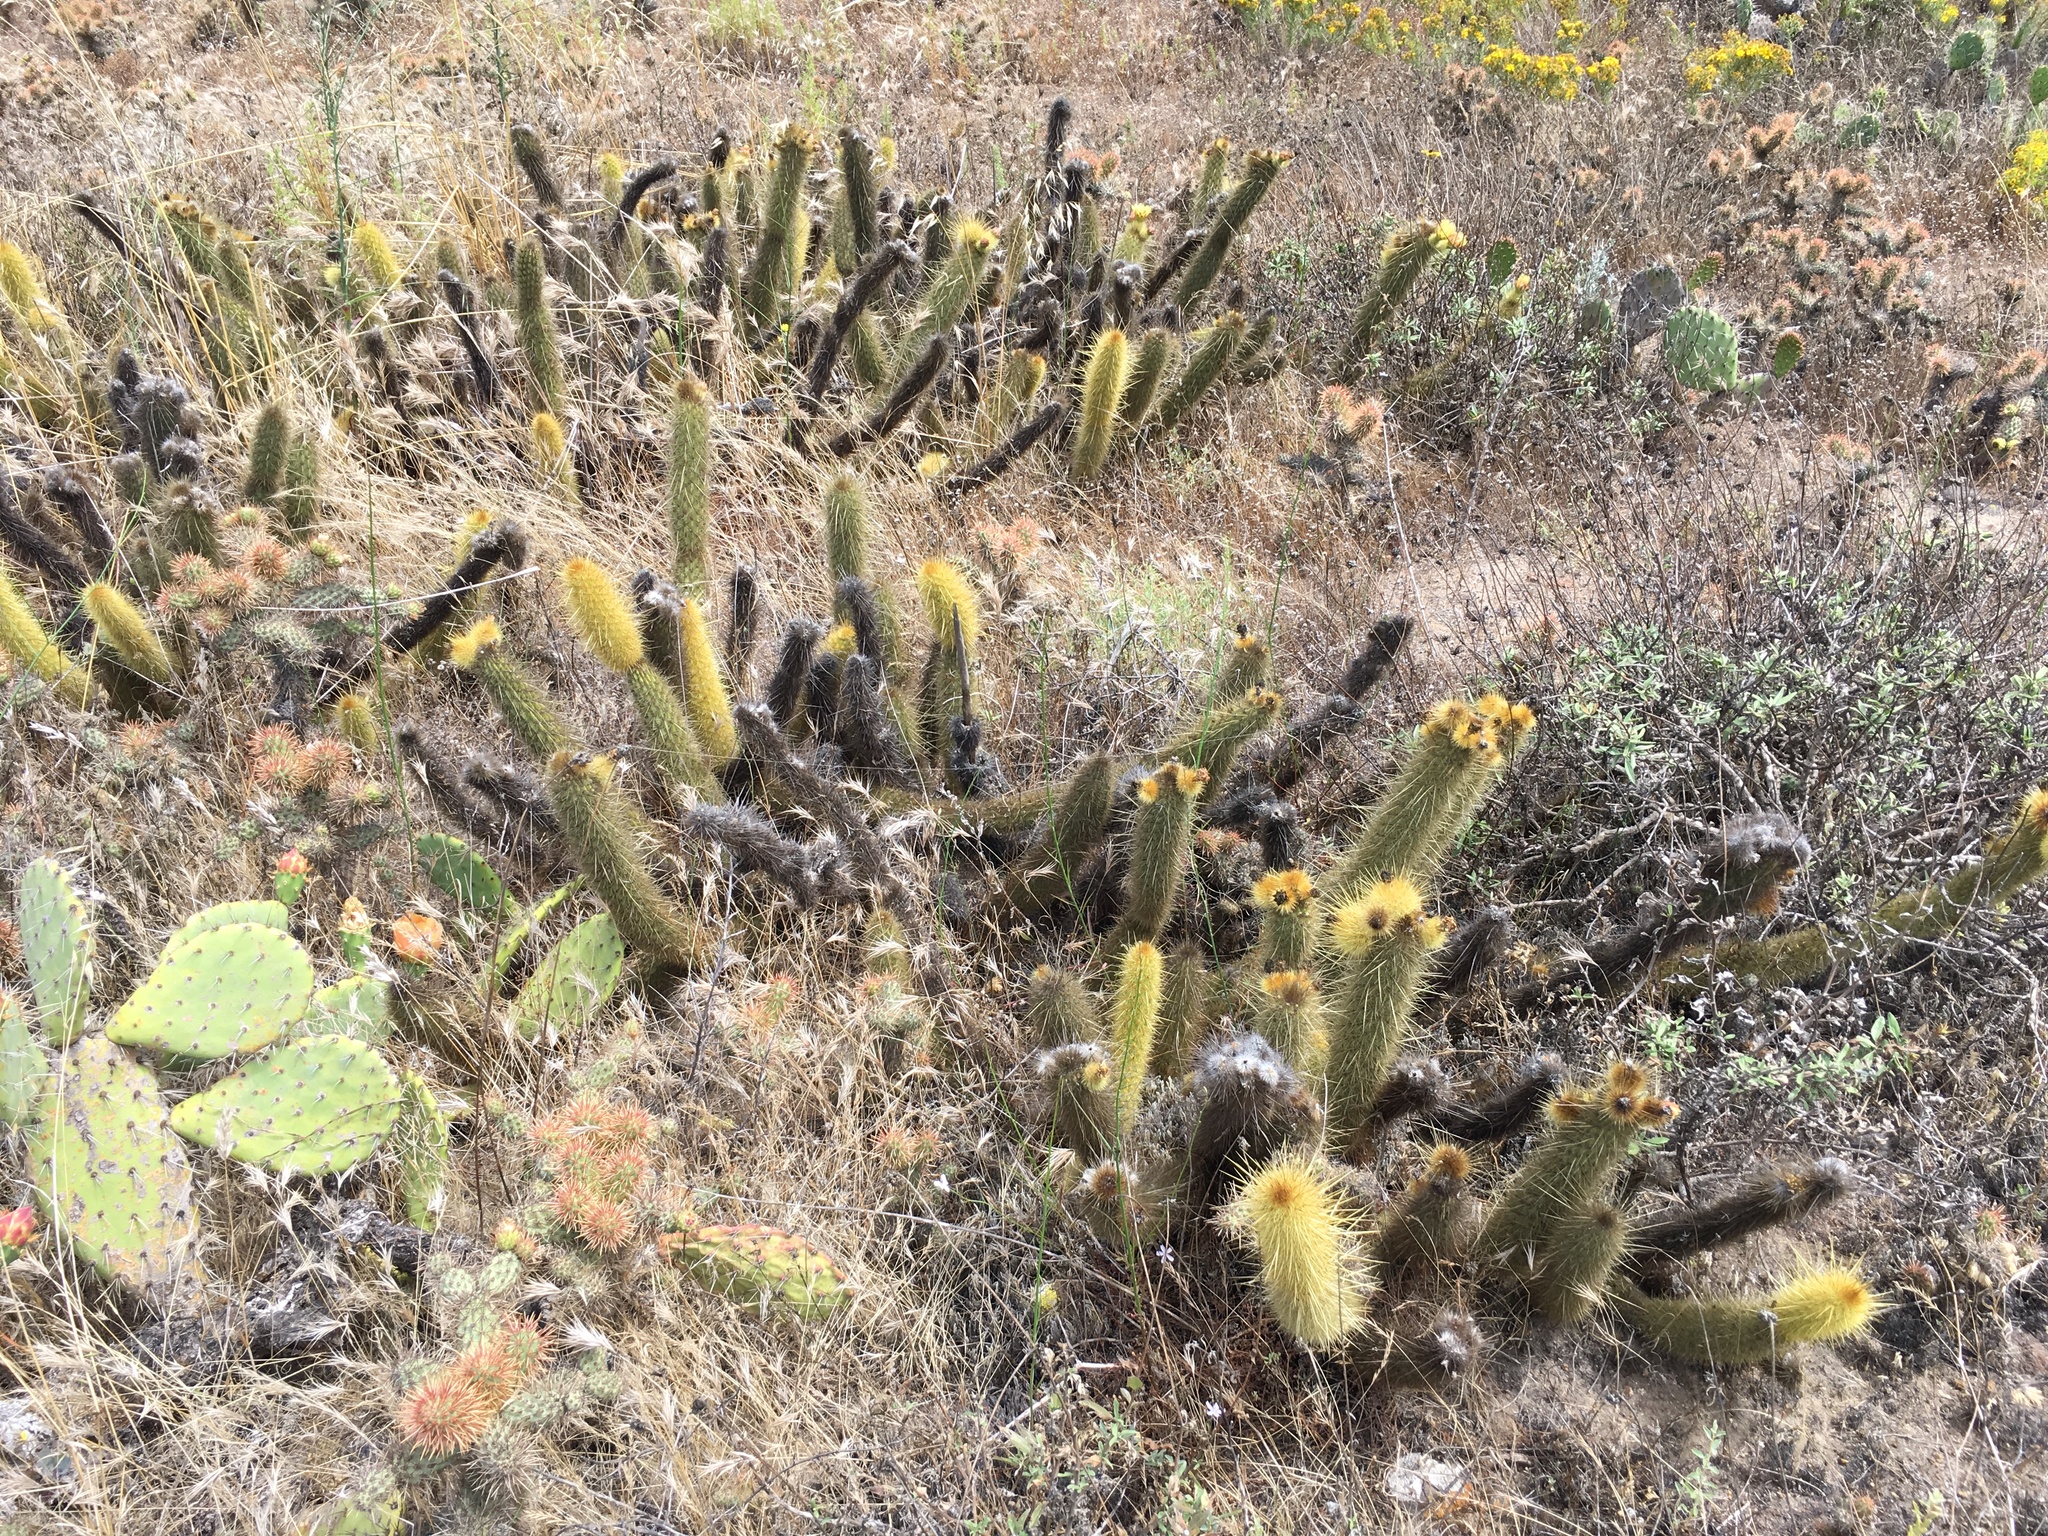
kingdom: Plantae
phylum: Tracheophyta
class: Magnoliopsida
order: Caryophyllales
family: Cactaceae
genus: Bergerocactus
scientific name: Bergerocactus emoryi
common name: Golden snakecactus
